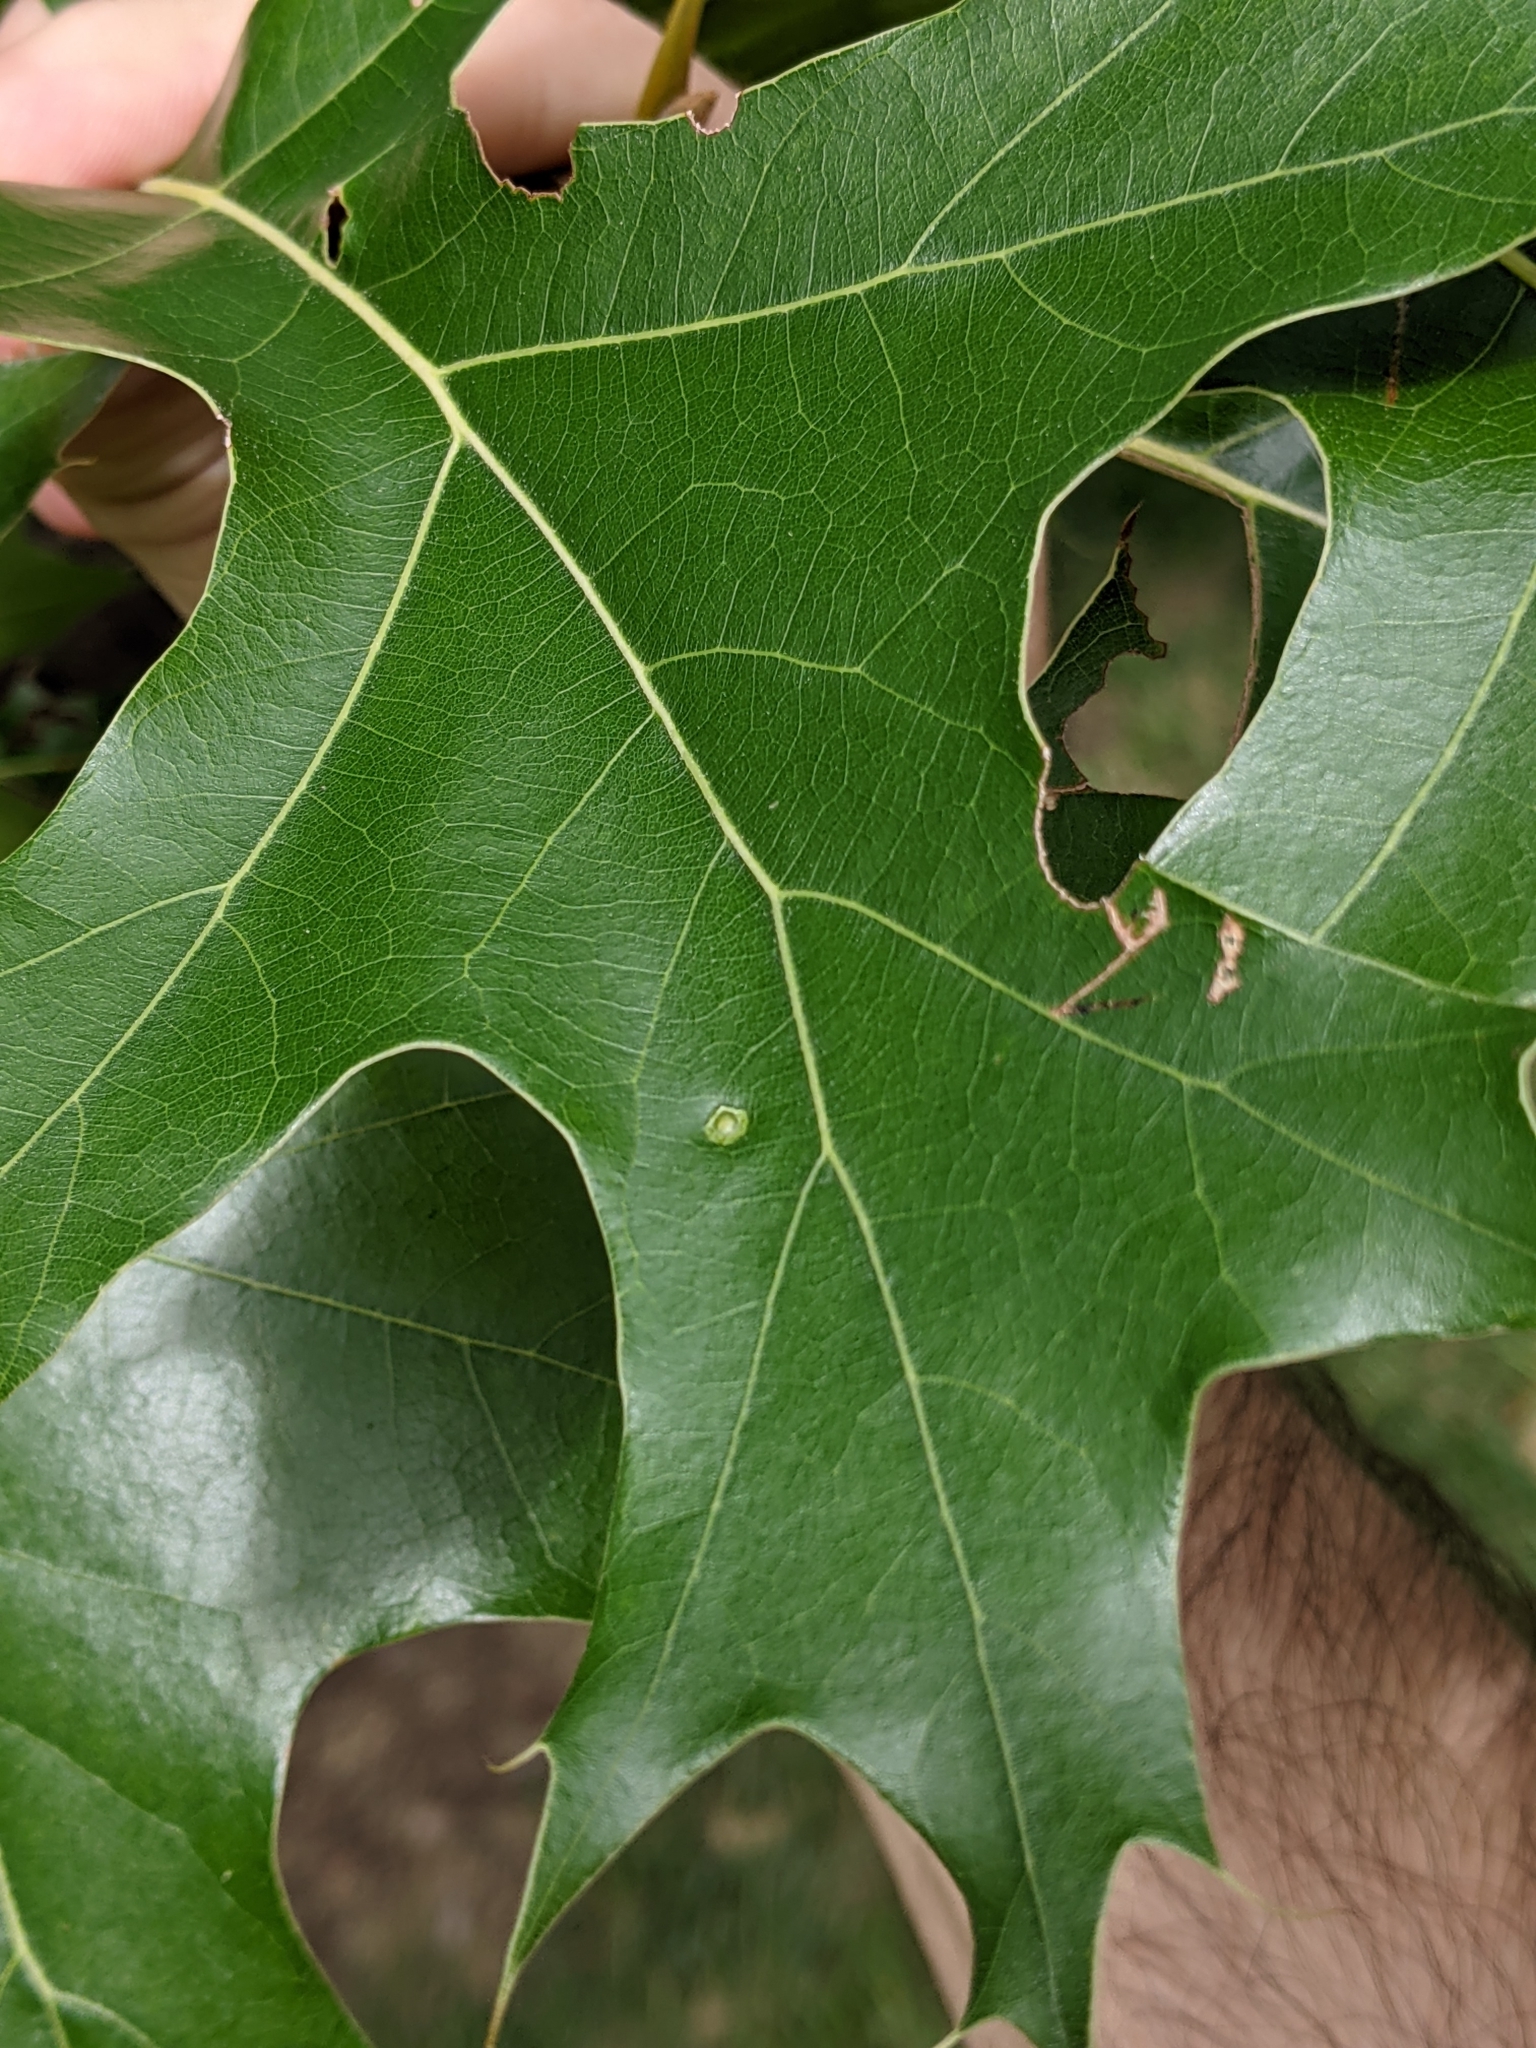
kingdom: Animalia
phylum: Arthropoda
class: Insecta
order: Diptera
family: Cecidomyiidae
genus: Polystepha
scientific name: Polystepha globosa
